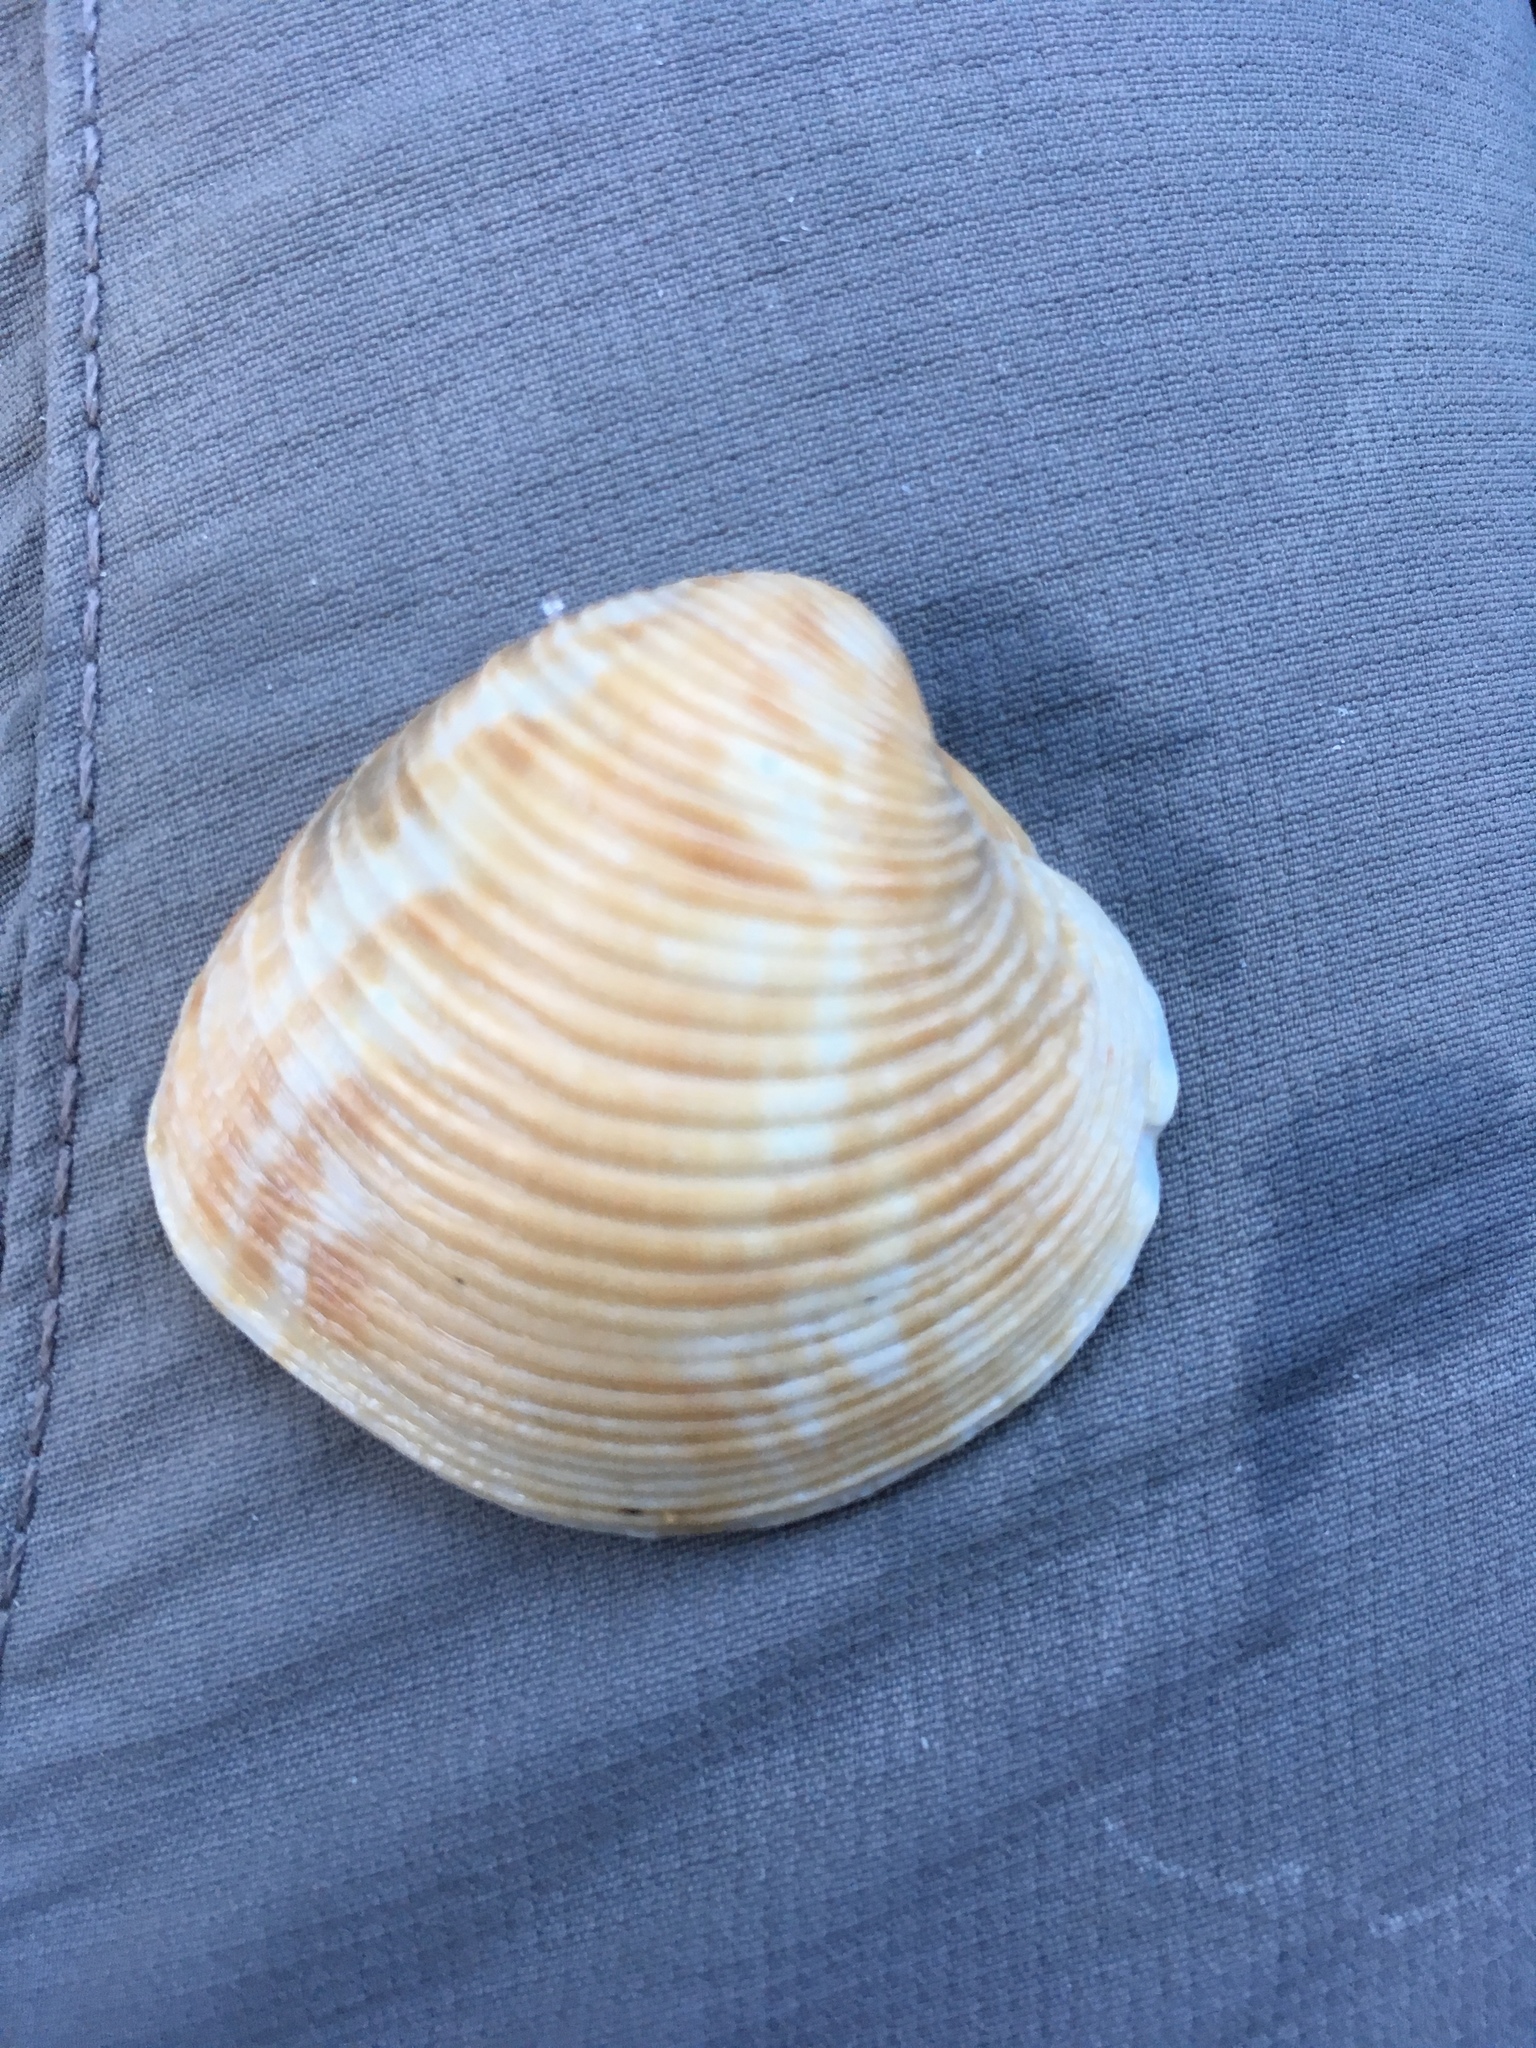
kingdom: Animalia
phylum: Mollusca
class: Bivalvia
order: Venerida
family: Veneridae
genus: Chionopsis
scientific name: Chionopsis intapurpurea
